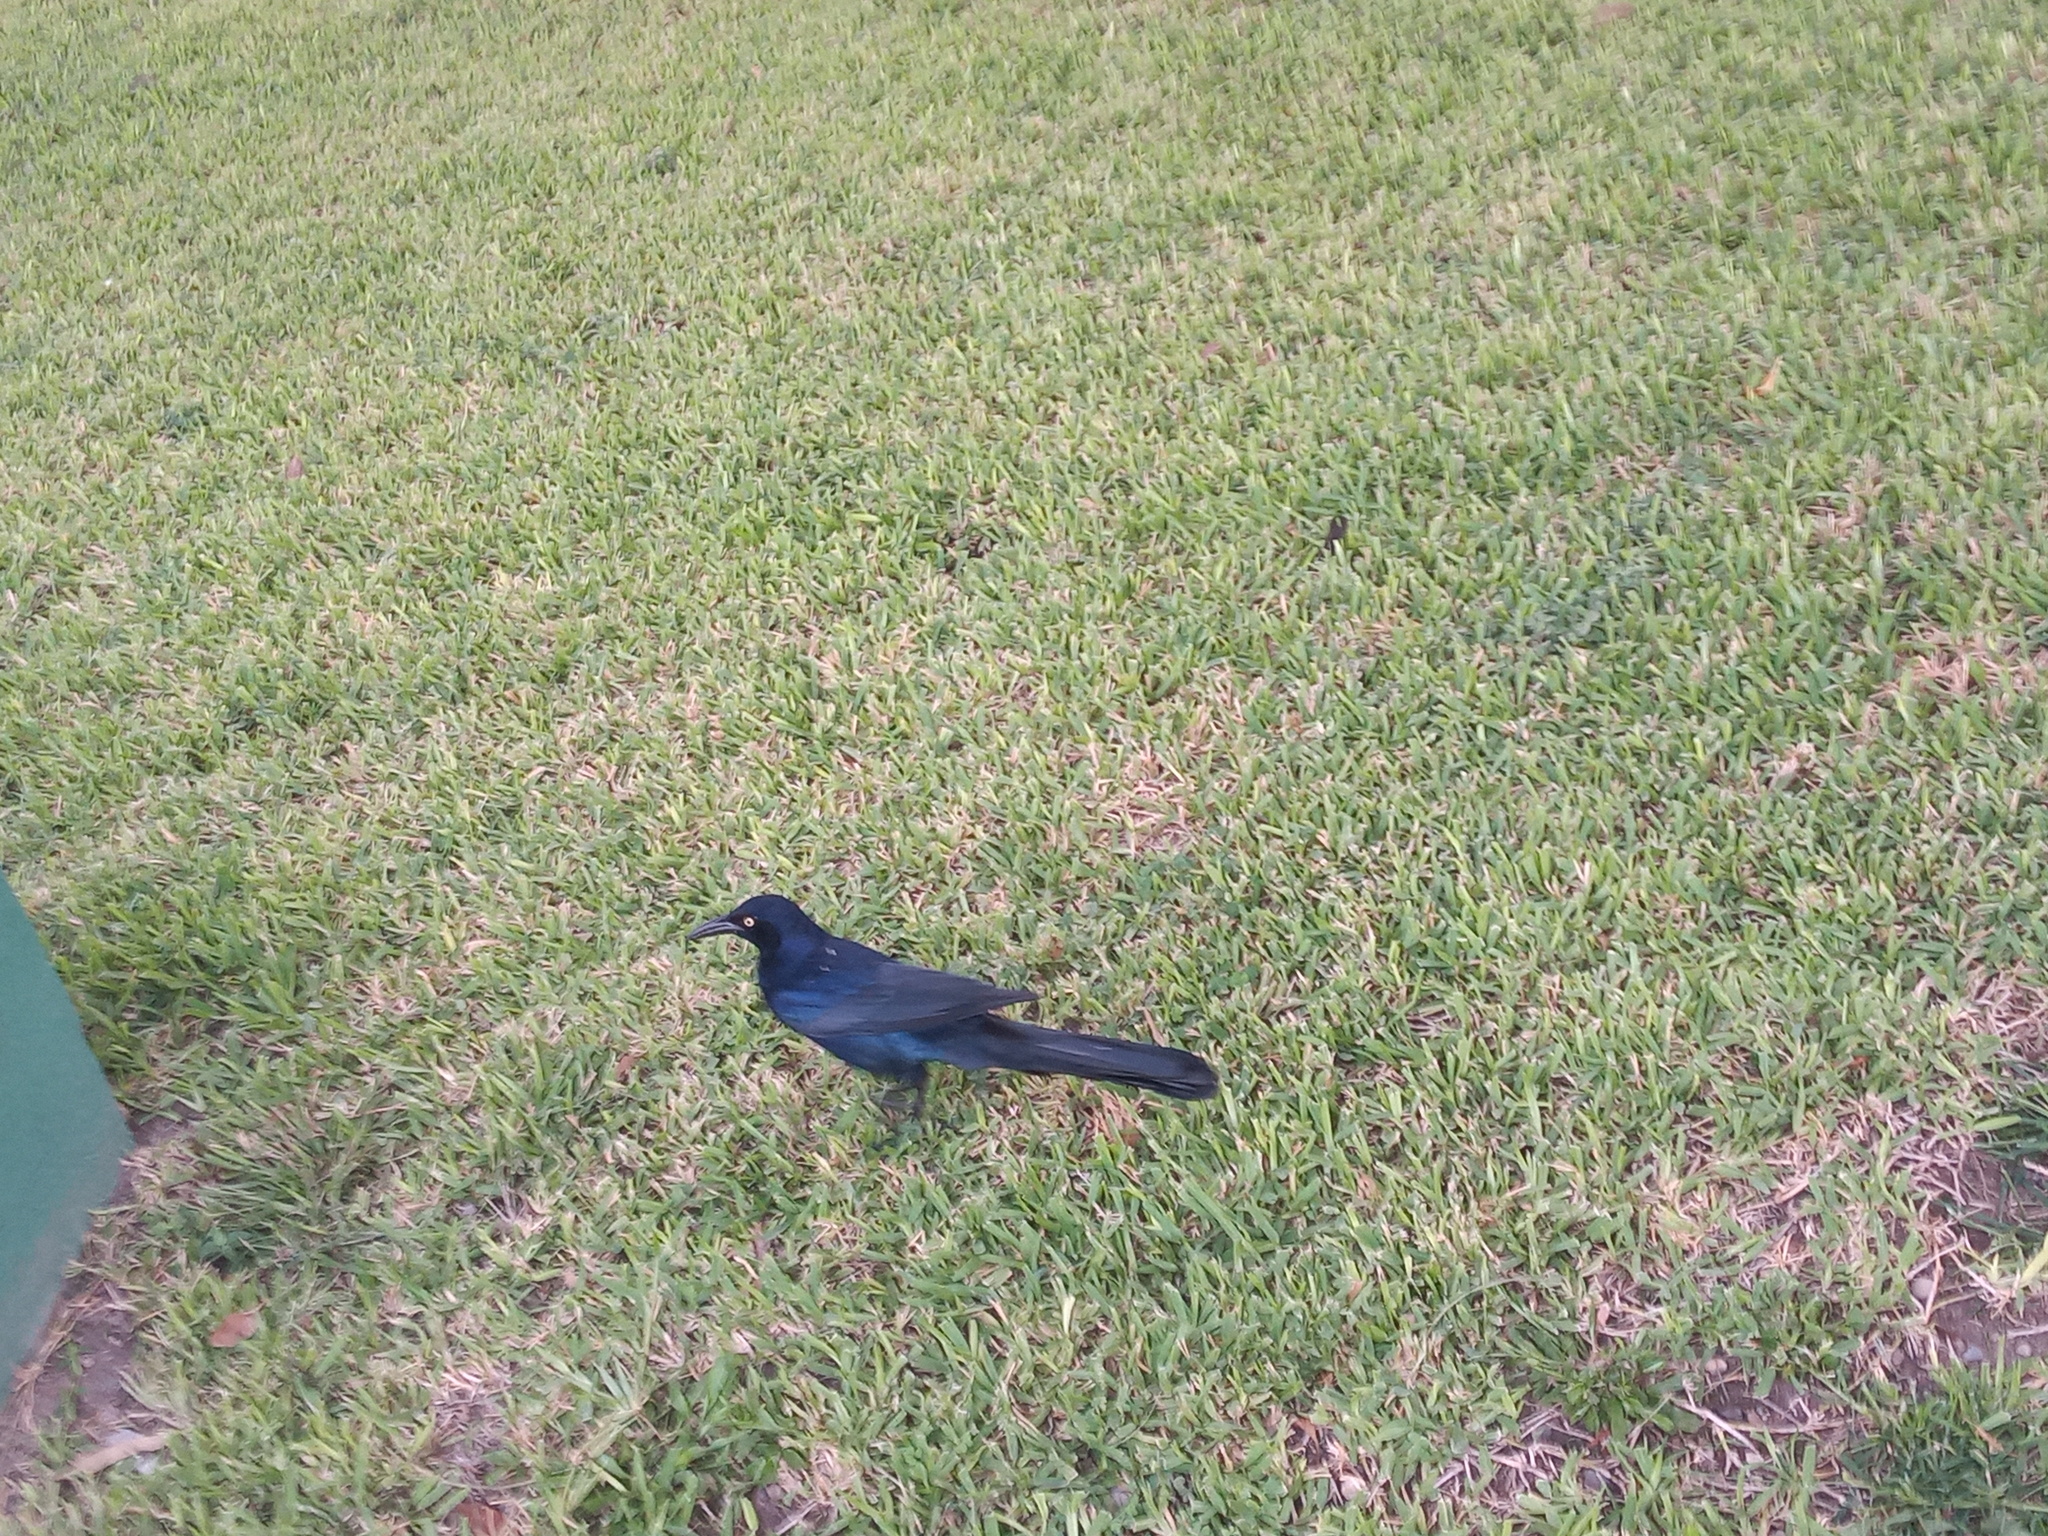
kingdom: Animalia
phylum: Chordata
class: Aves
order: Passeriformes
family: Icteridae
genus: Quiscalus
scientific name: Quiscalus mexicanus
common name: Great-tailed grackle
